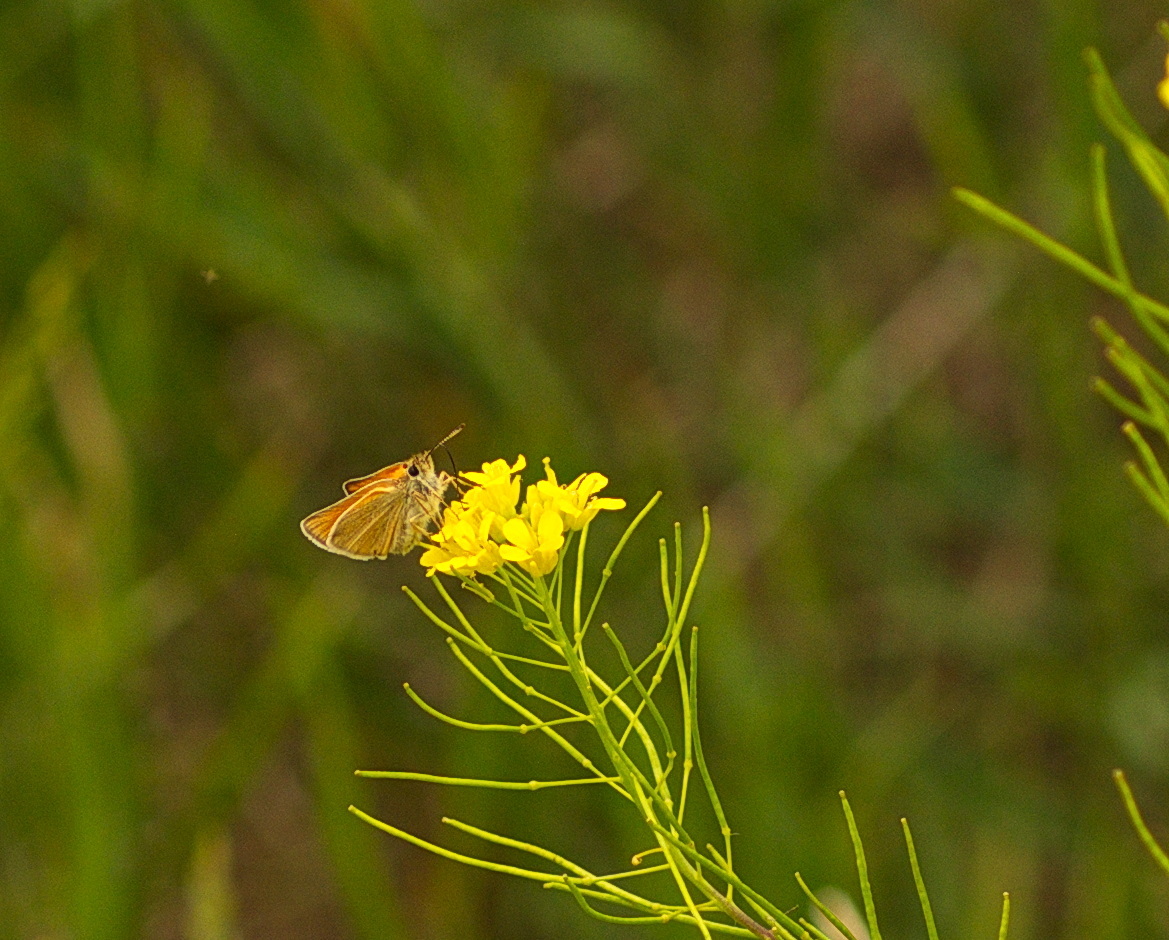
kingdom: Animalia
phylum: Arthropoda
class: Insecta
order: Lepidoptera
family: Hesperiidae
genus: Thymelicus
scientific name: Thymelicus lineola
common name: Essex skipper
